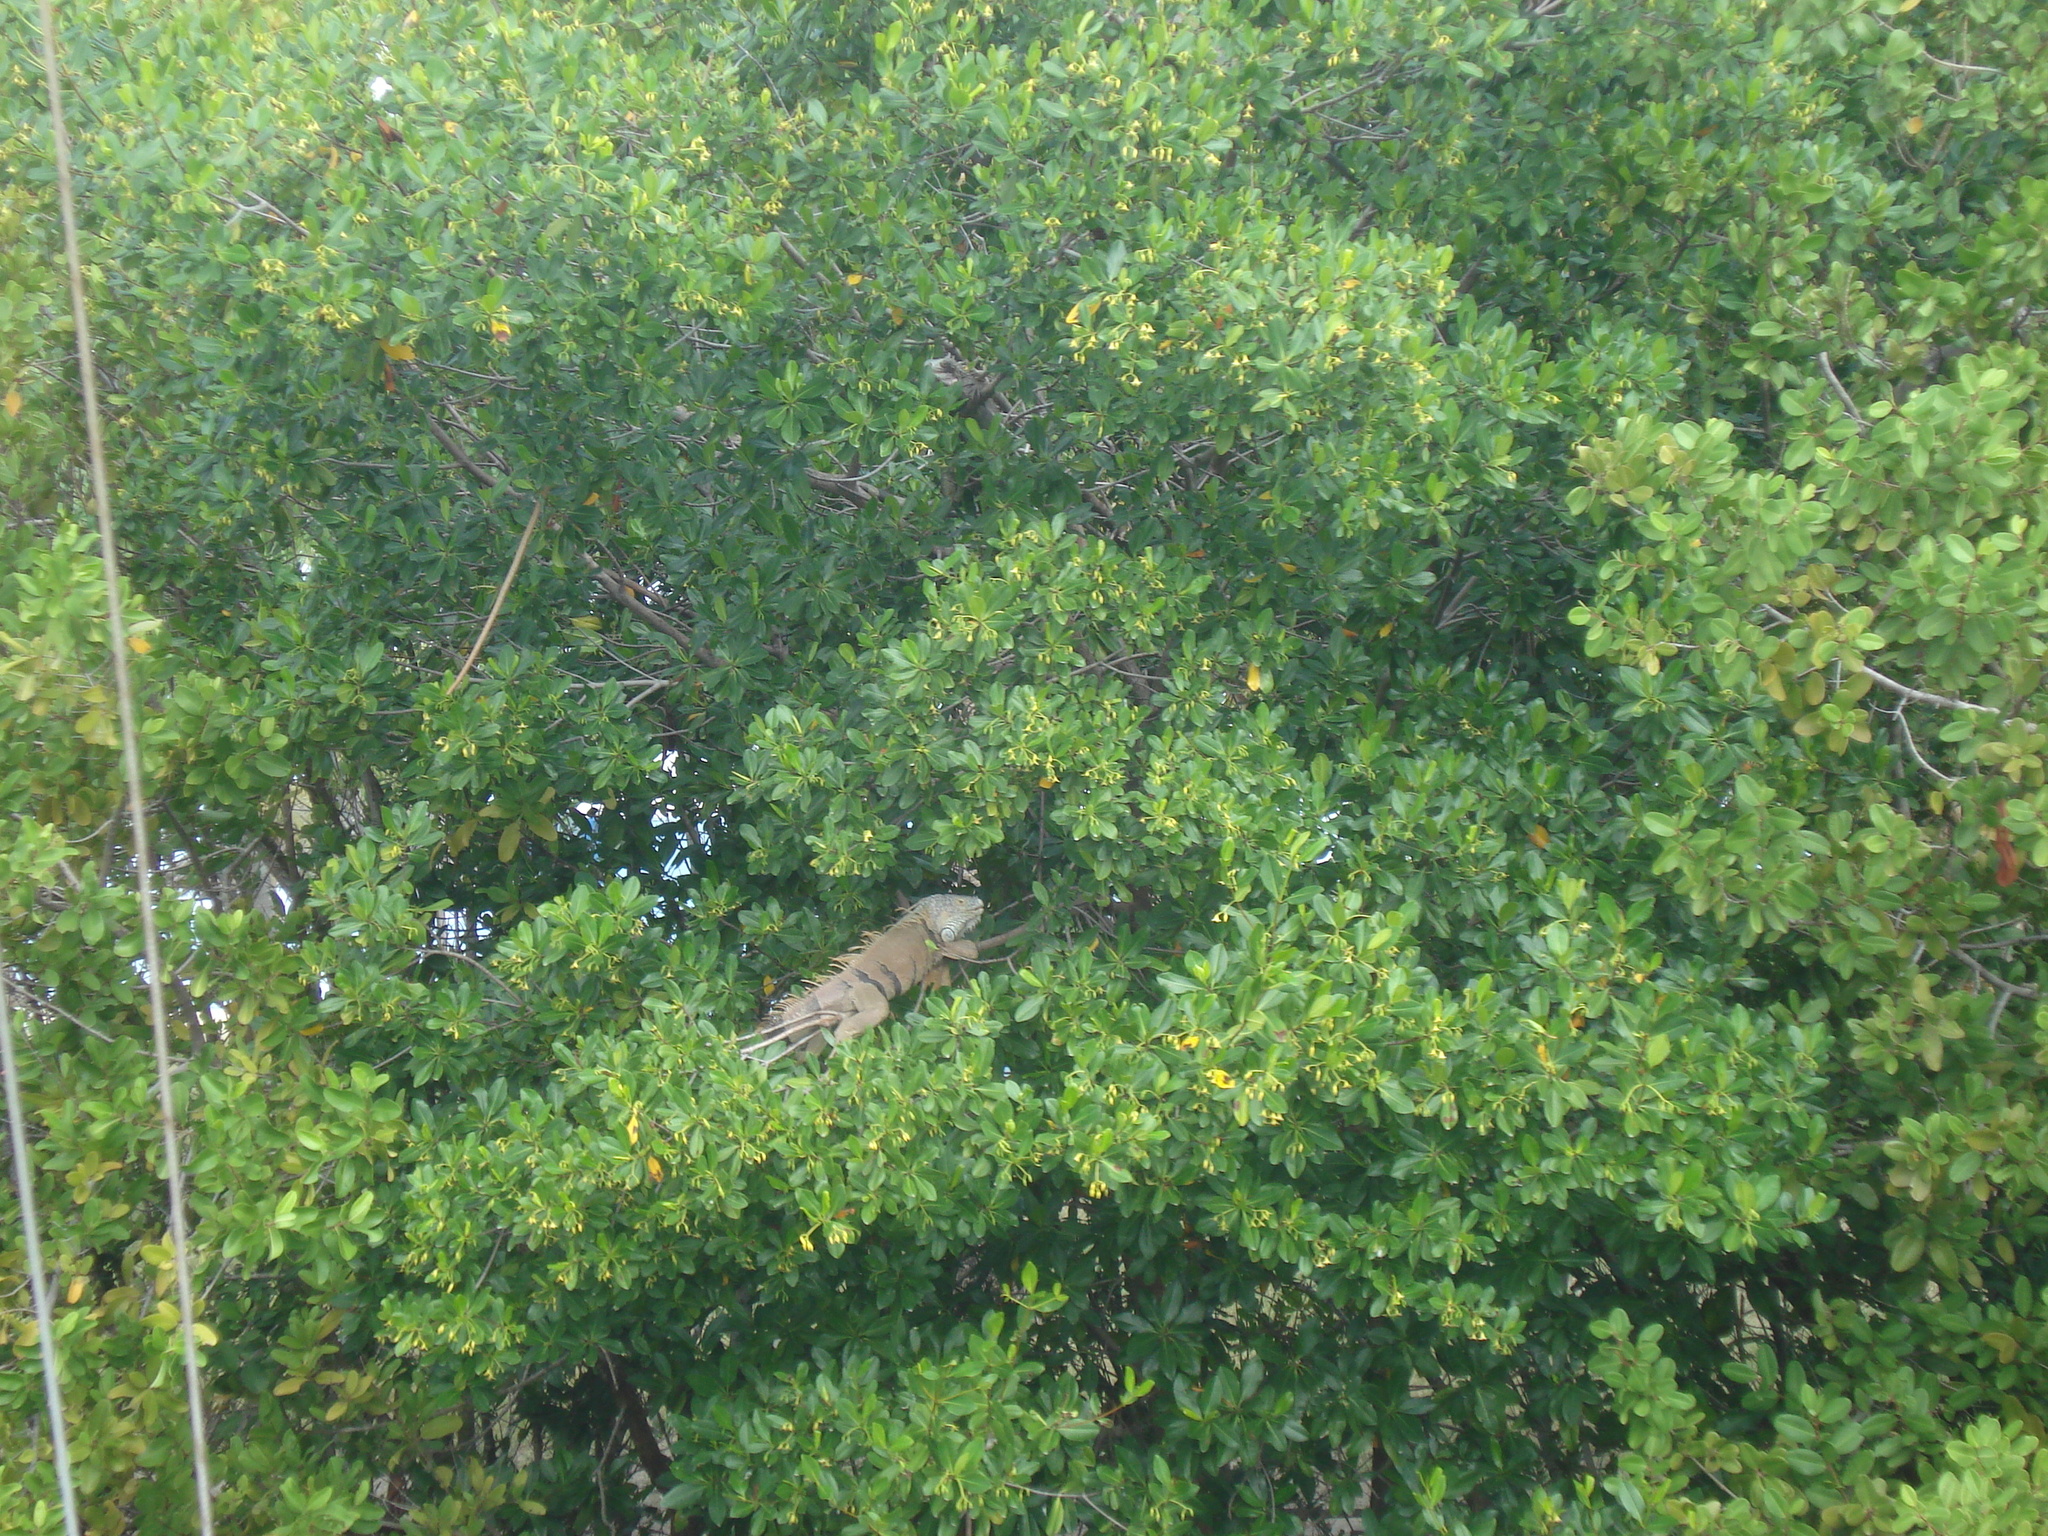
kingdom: Animalia
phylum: Chordata
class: Squamata
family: Iguanidae
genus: Iguana
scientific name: Iguana iguana
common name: Green iguana
